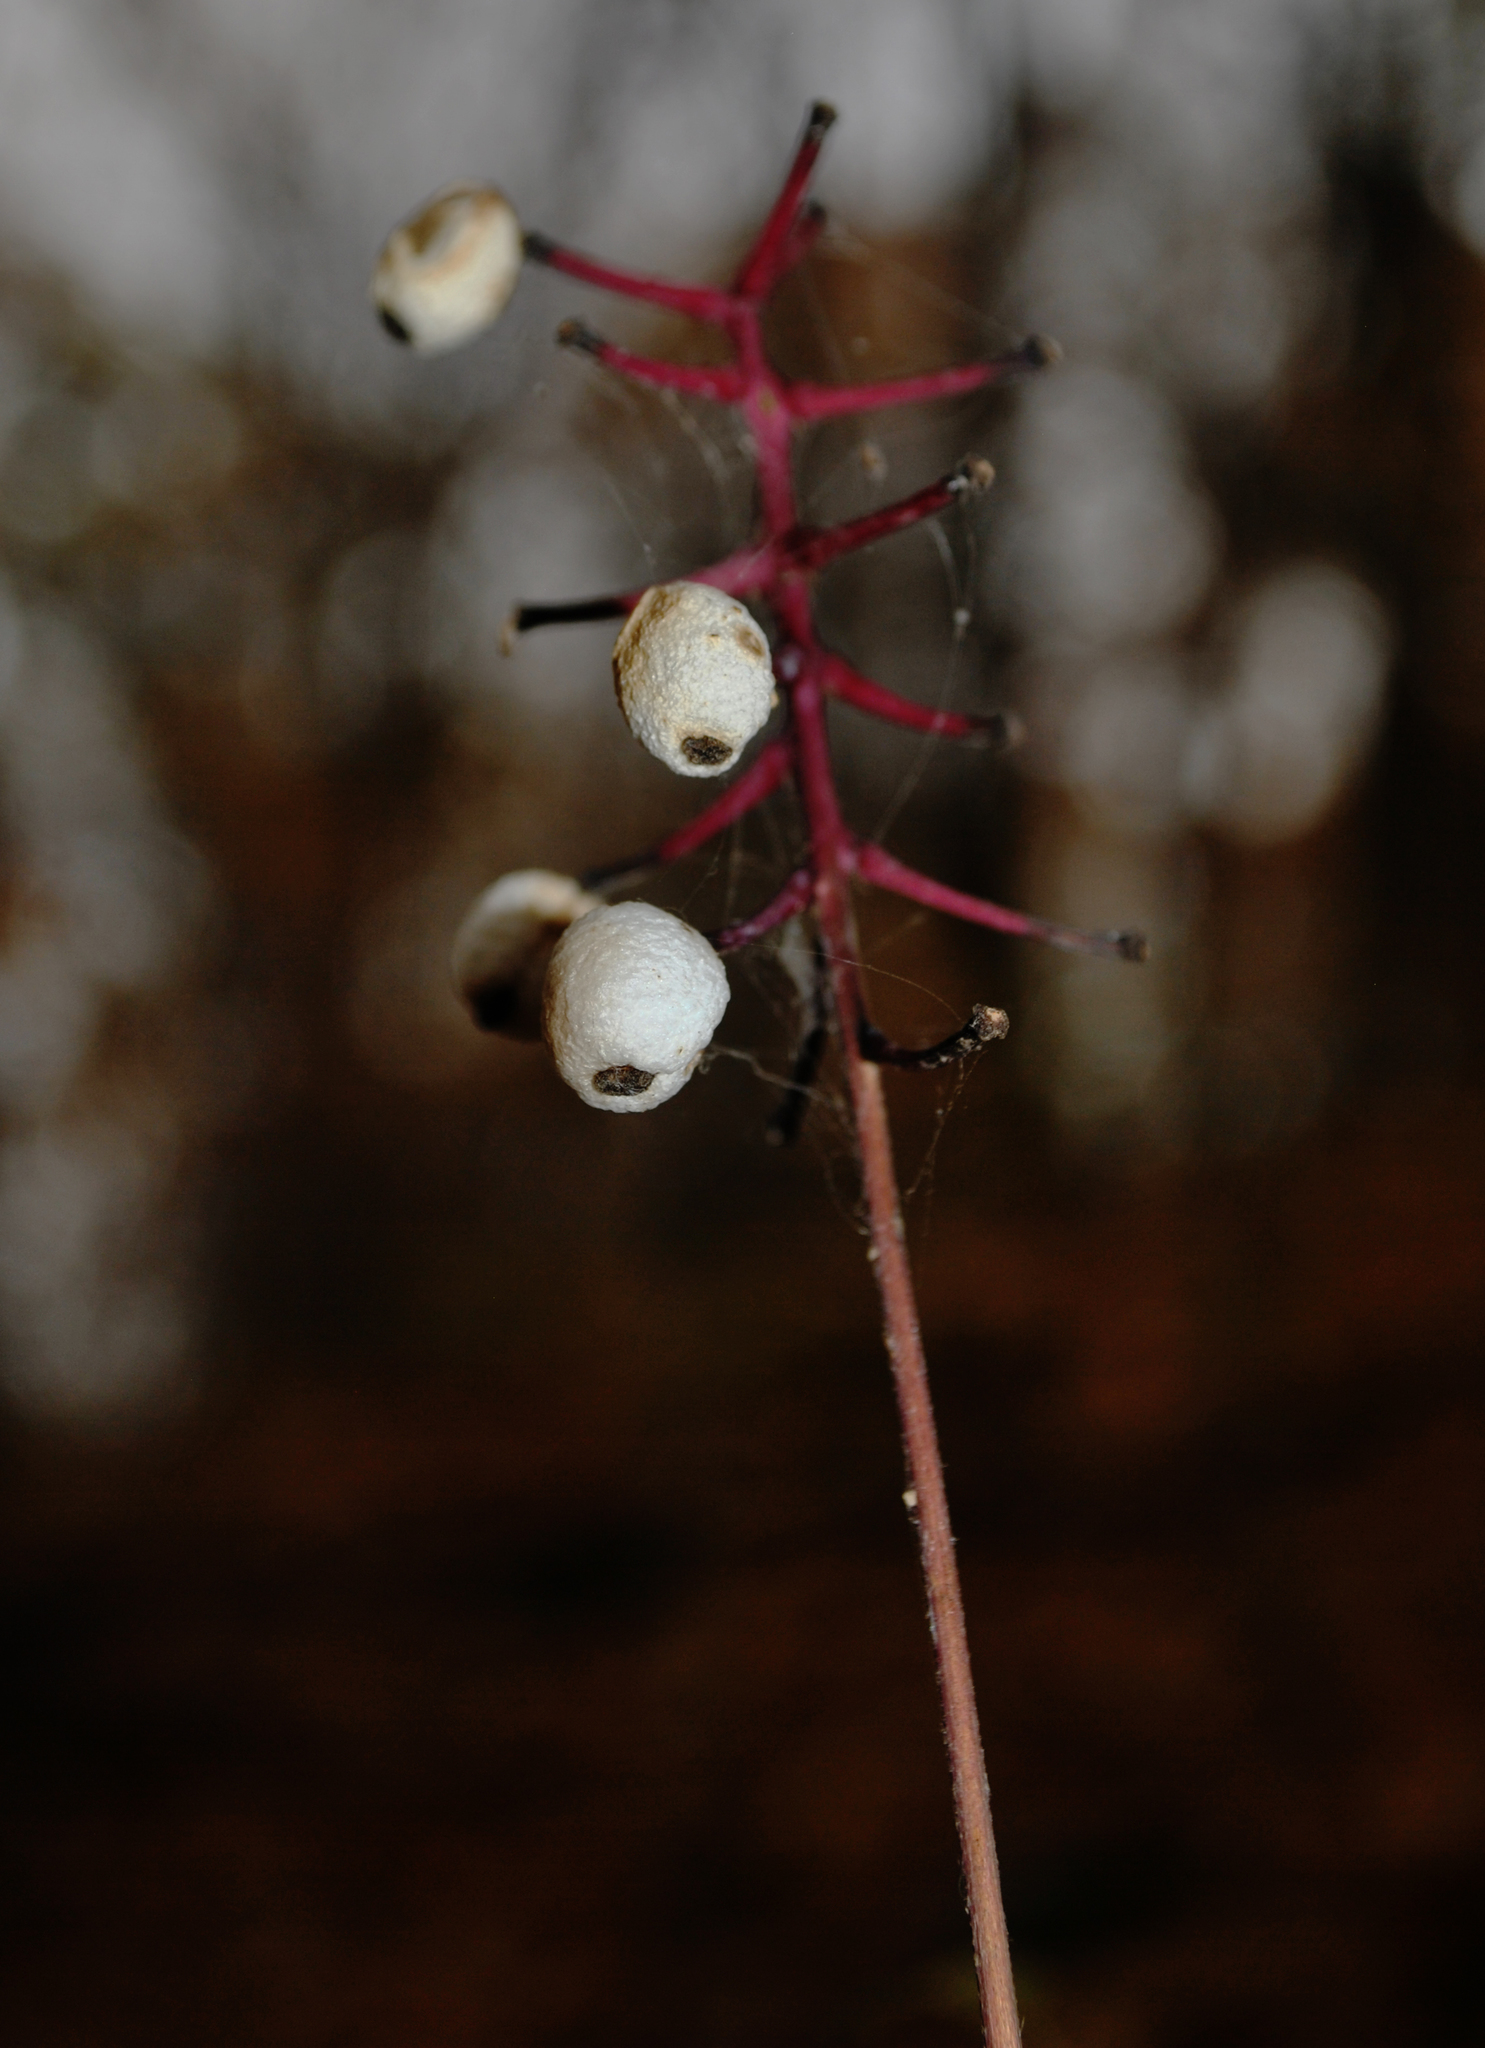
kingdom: Plantae
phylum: Tracheophyta
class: Magnoliopsida
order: Ranunculales
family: Ranunculaceae
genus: Actaea
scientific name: Actaea pachypoda
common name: Doll's-eyes
